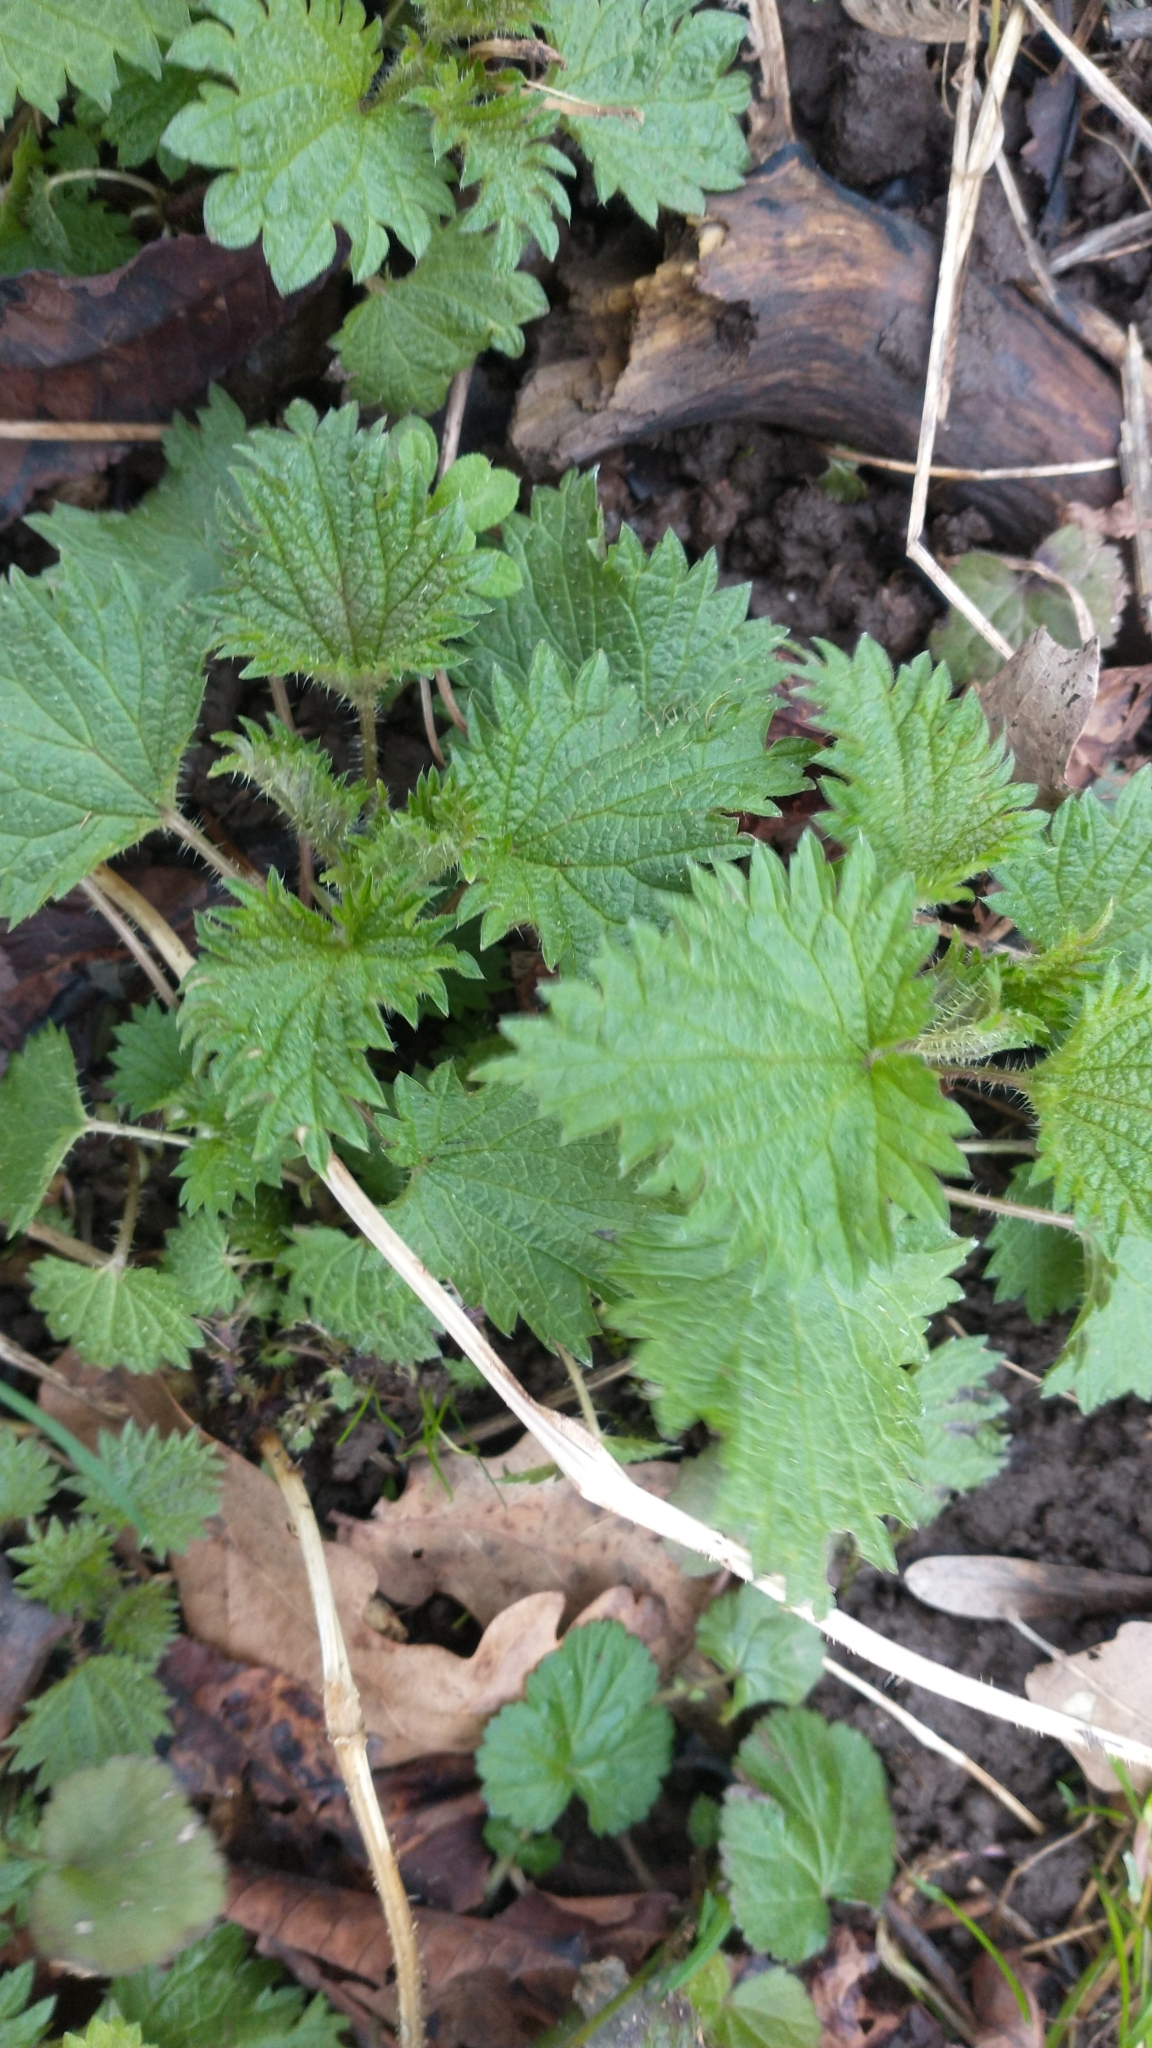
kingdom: Plantae
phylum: Tracheophyta
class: Magnoliopsida
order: Rosales
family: Urticaceae
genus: Urtica
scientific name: Urtica dioica
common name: Common nettle
